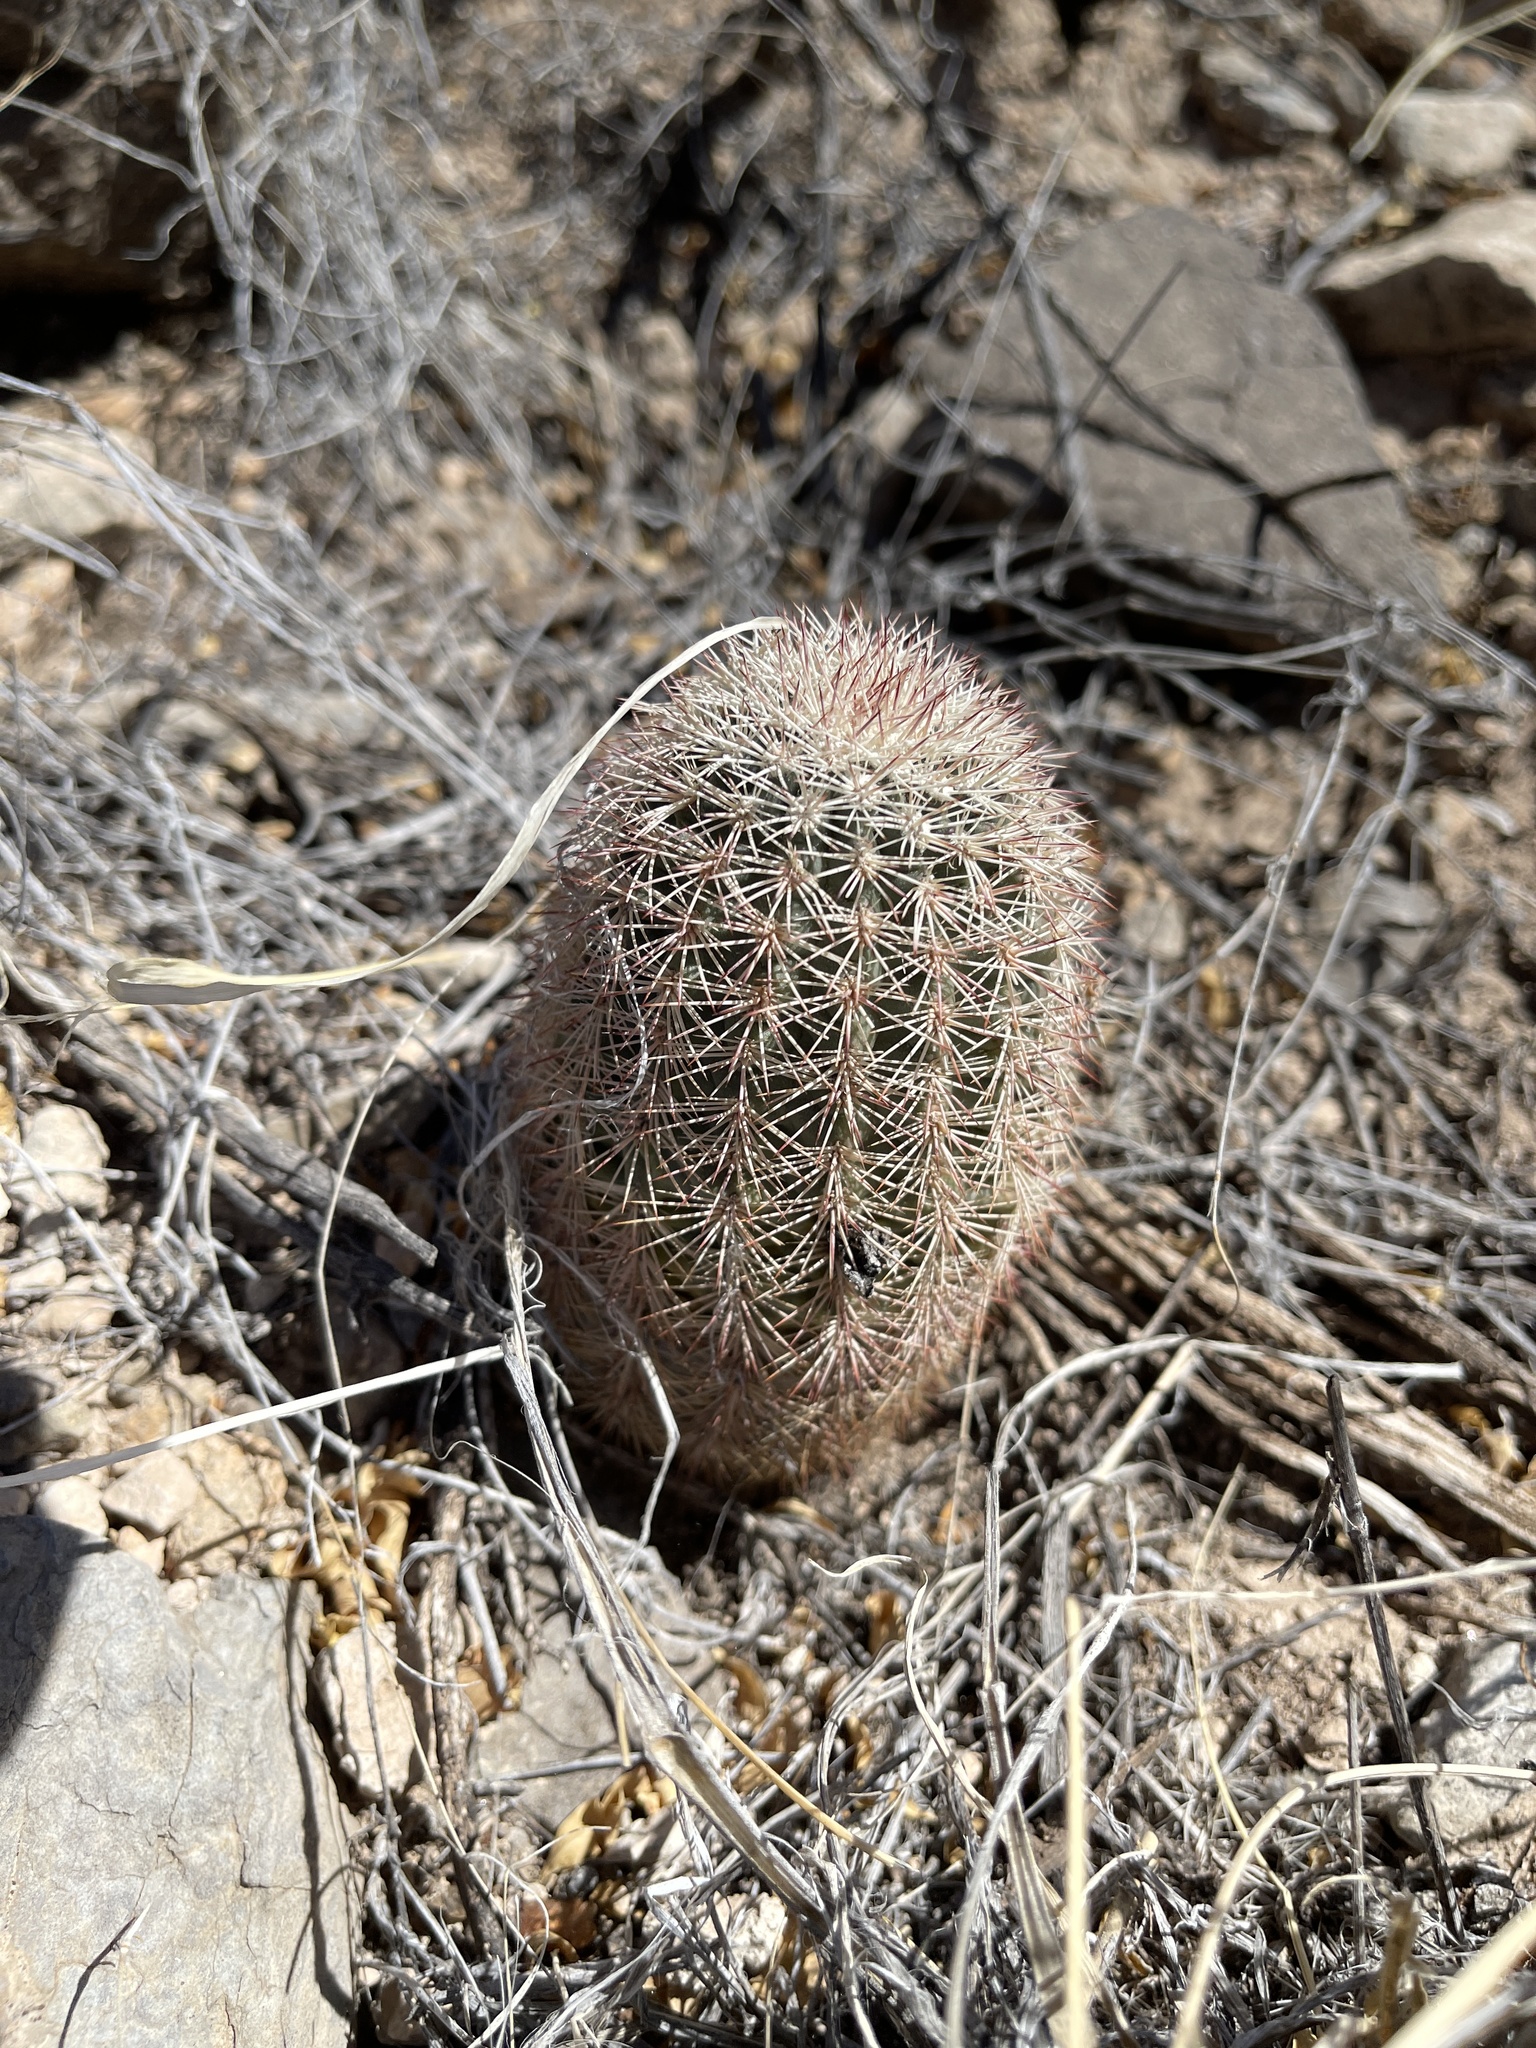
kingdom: Plantae
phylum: Tracheophyta
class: Magnoliopsida
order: Caryophyllales
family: Cactaceae
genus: Echinocereus
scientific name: Echinocereus dasyacanthus
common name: Spiny hedgehog cactus
